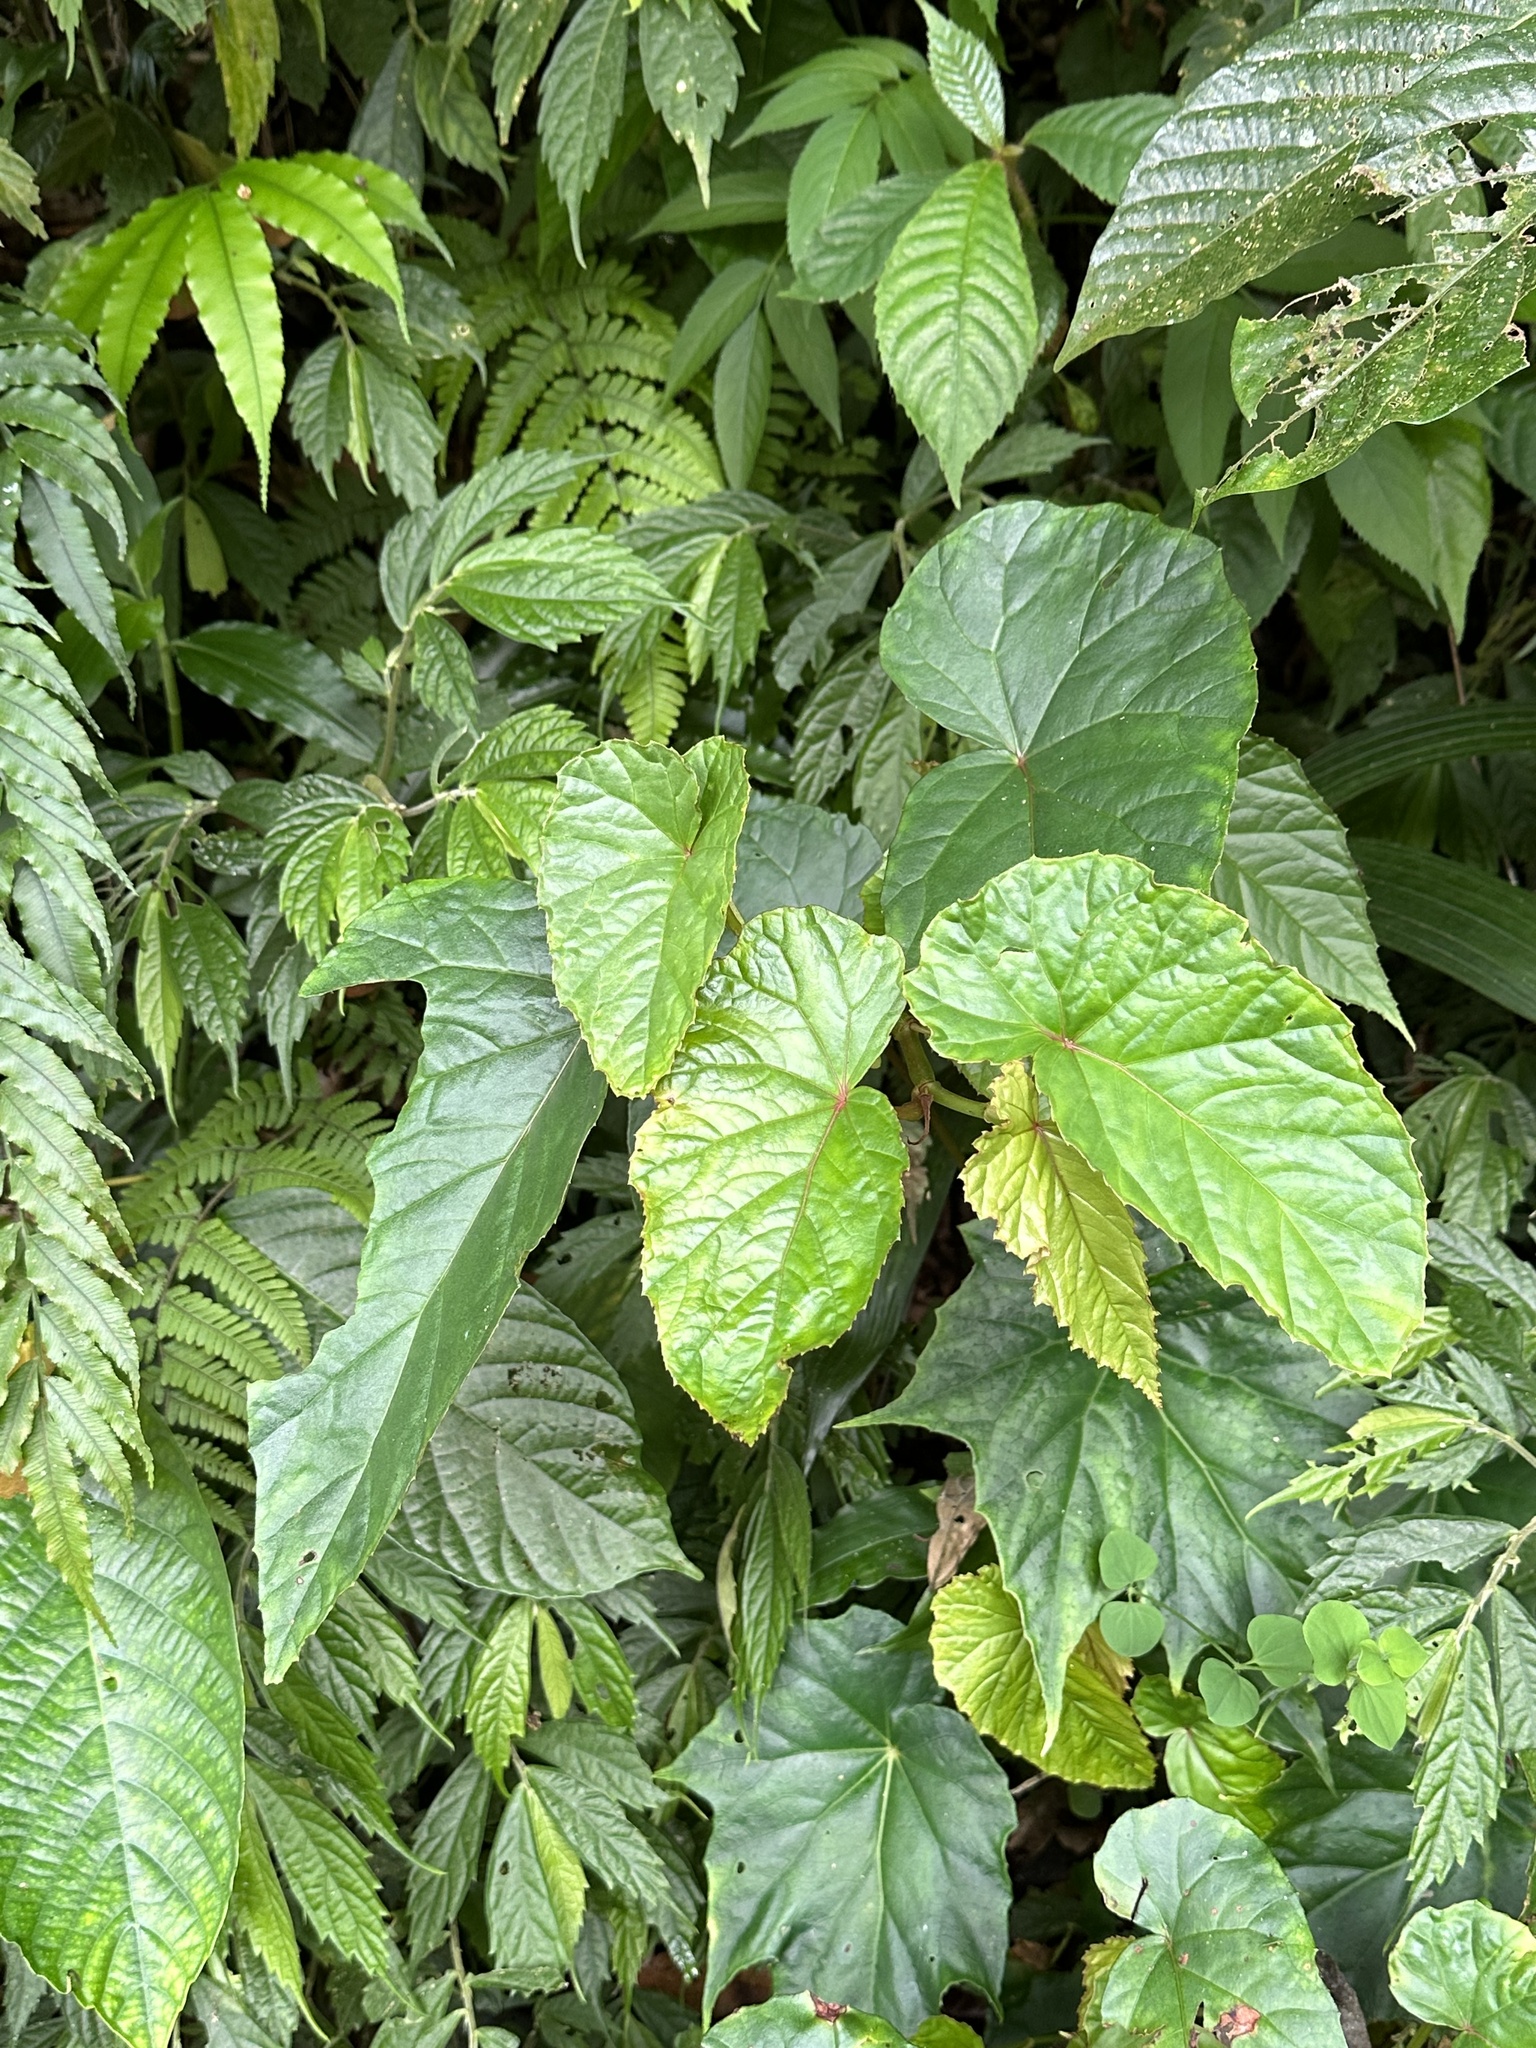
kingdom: Plantae
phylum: Tracheophyta
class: Magnoliopsida
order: Cucurbitales
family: Begoniaceae
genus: Begonia
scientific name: Begonia longifolia
